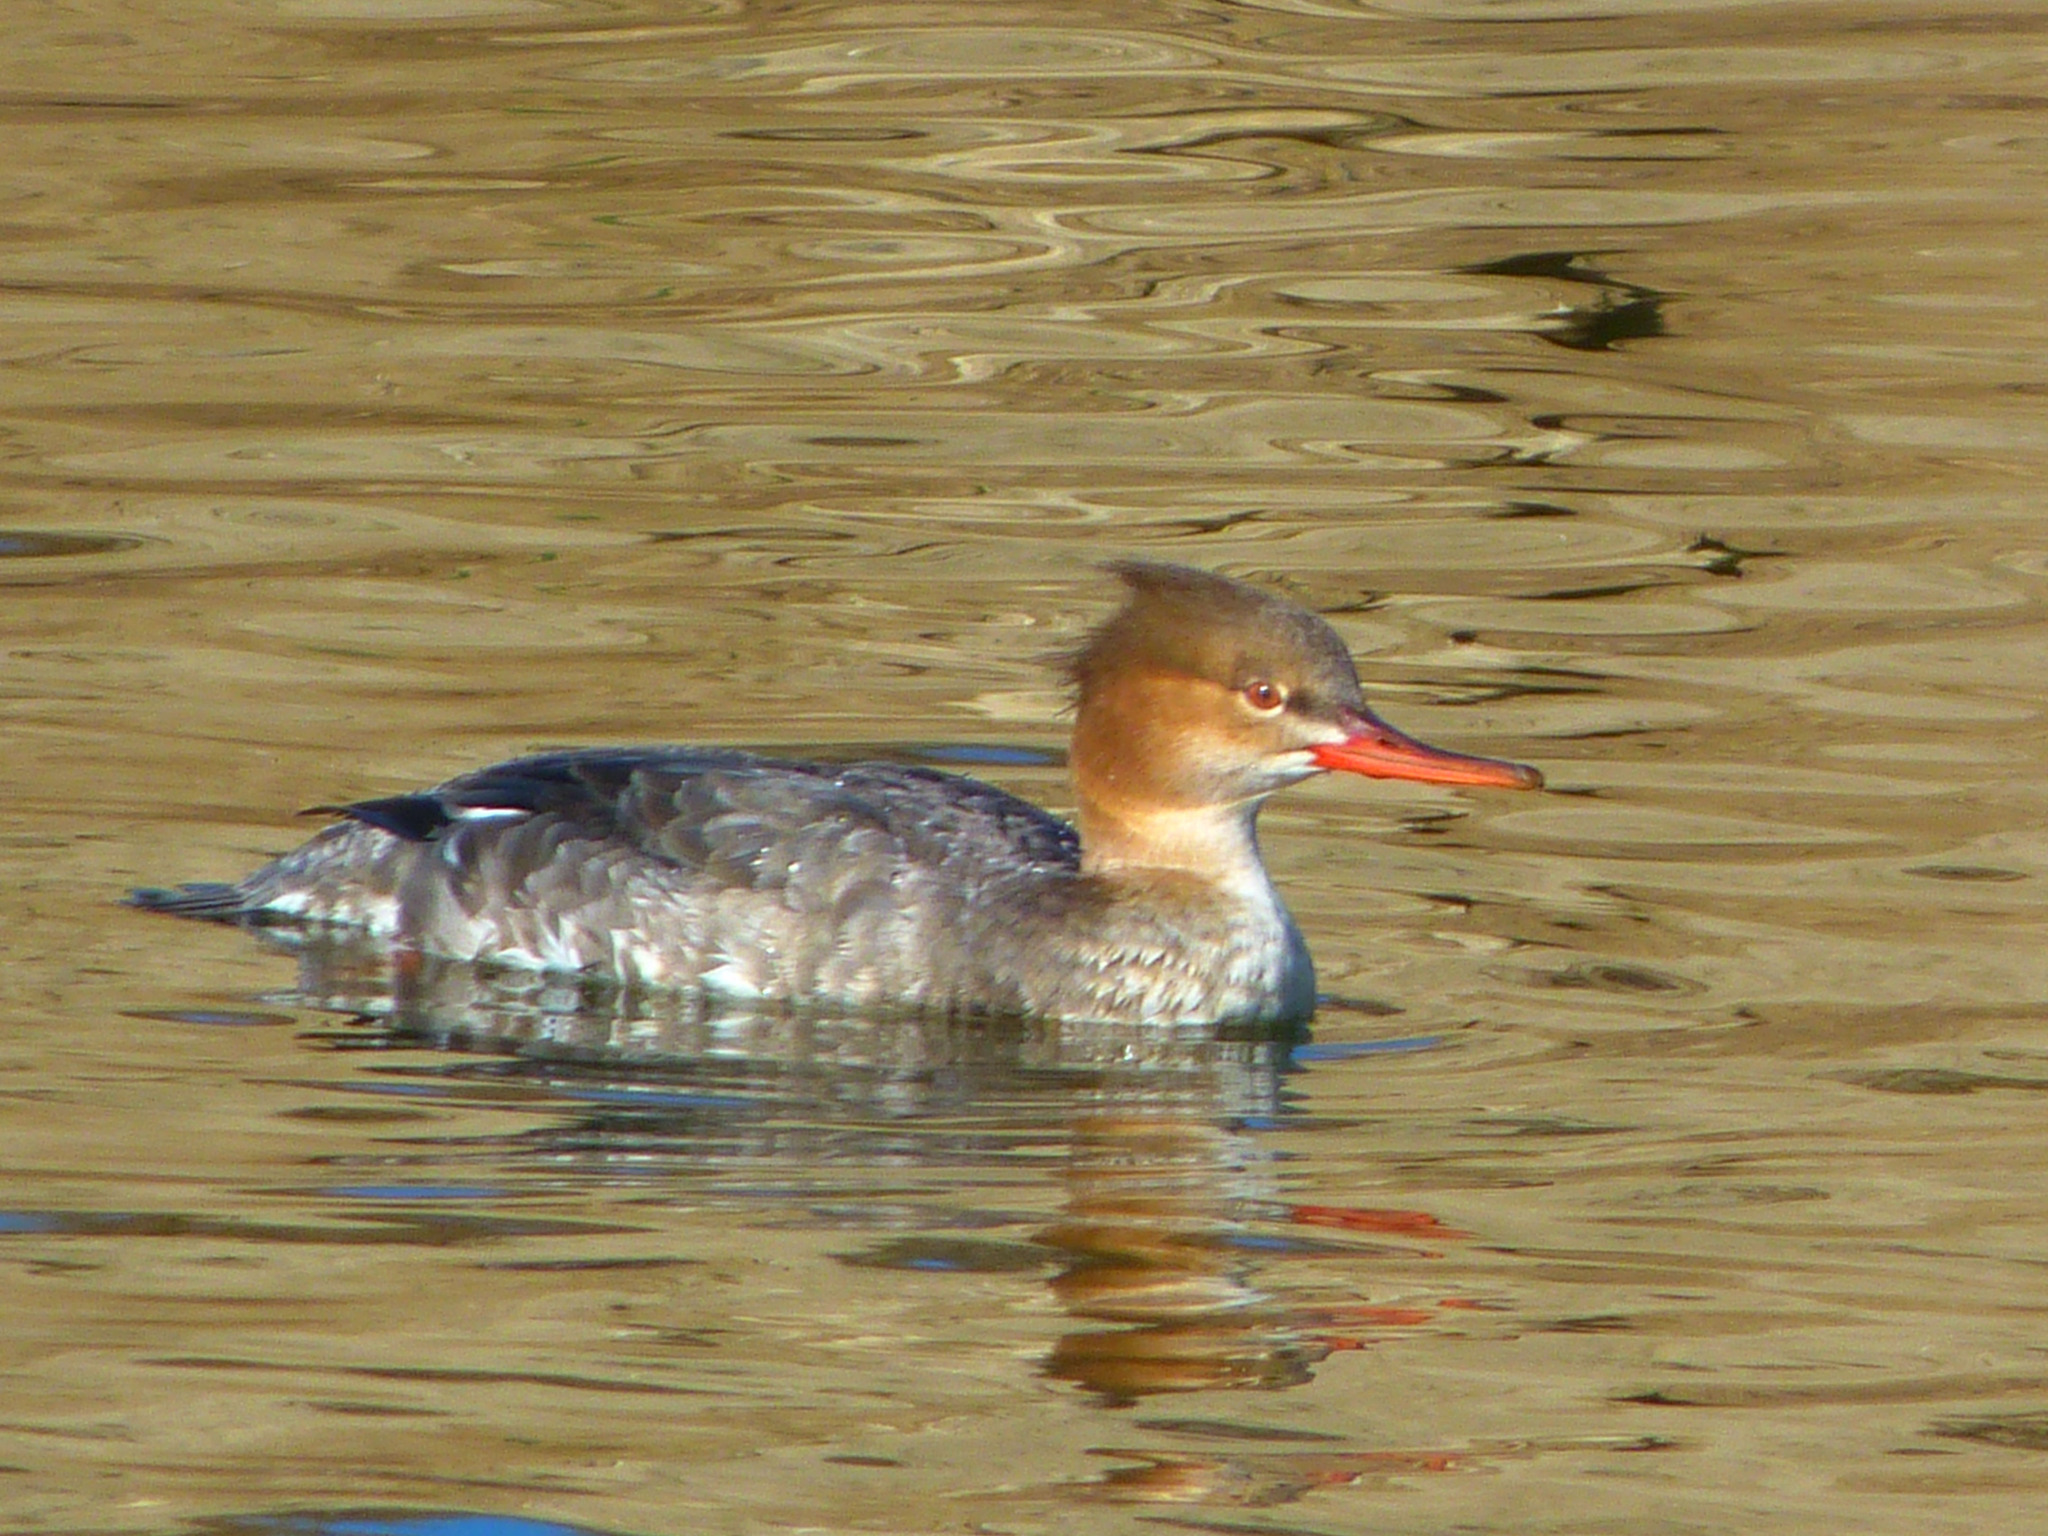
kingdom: Animalia
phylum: Chordata
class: Aves
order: Anseriformes
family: Anatidae
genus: Mergus
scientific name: Mergus serrator
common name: Red-breasted merganser
